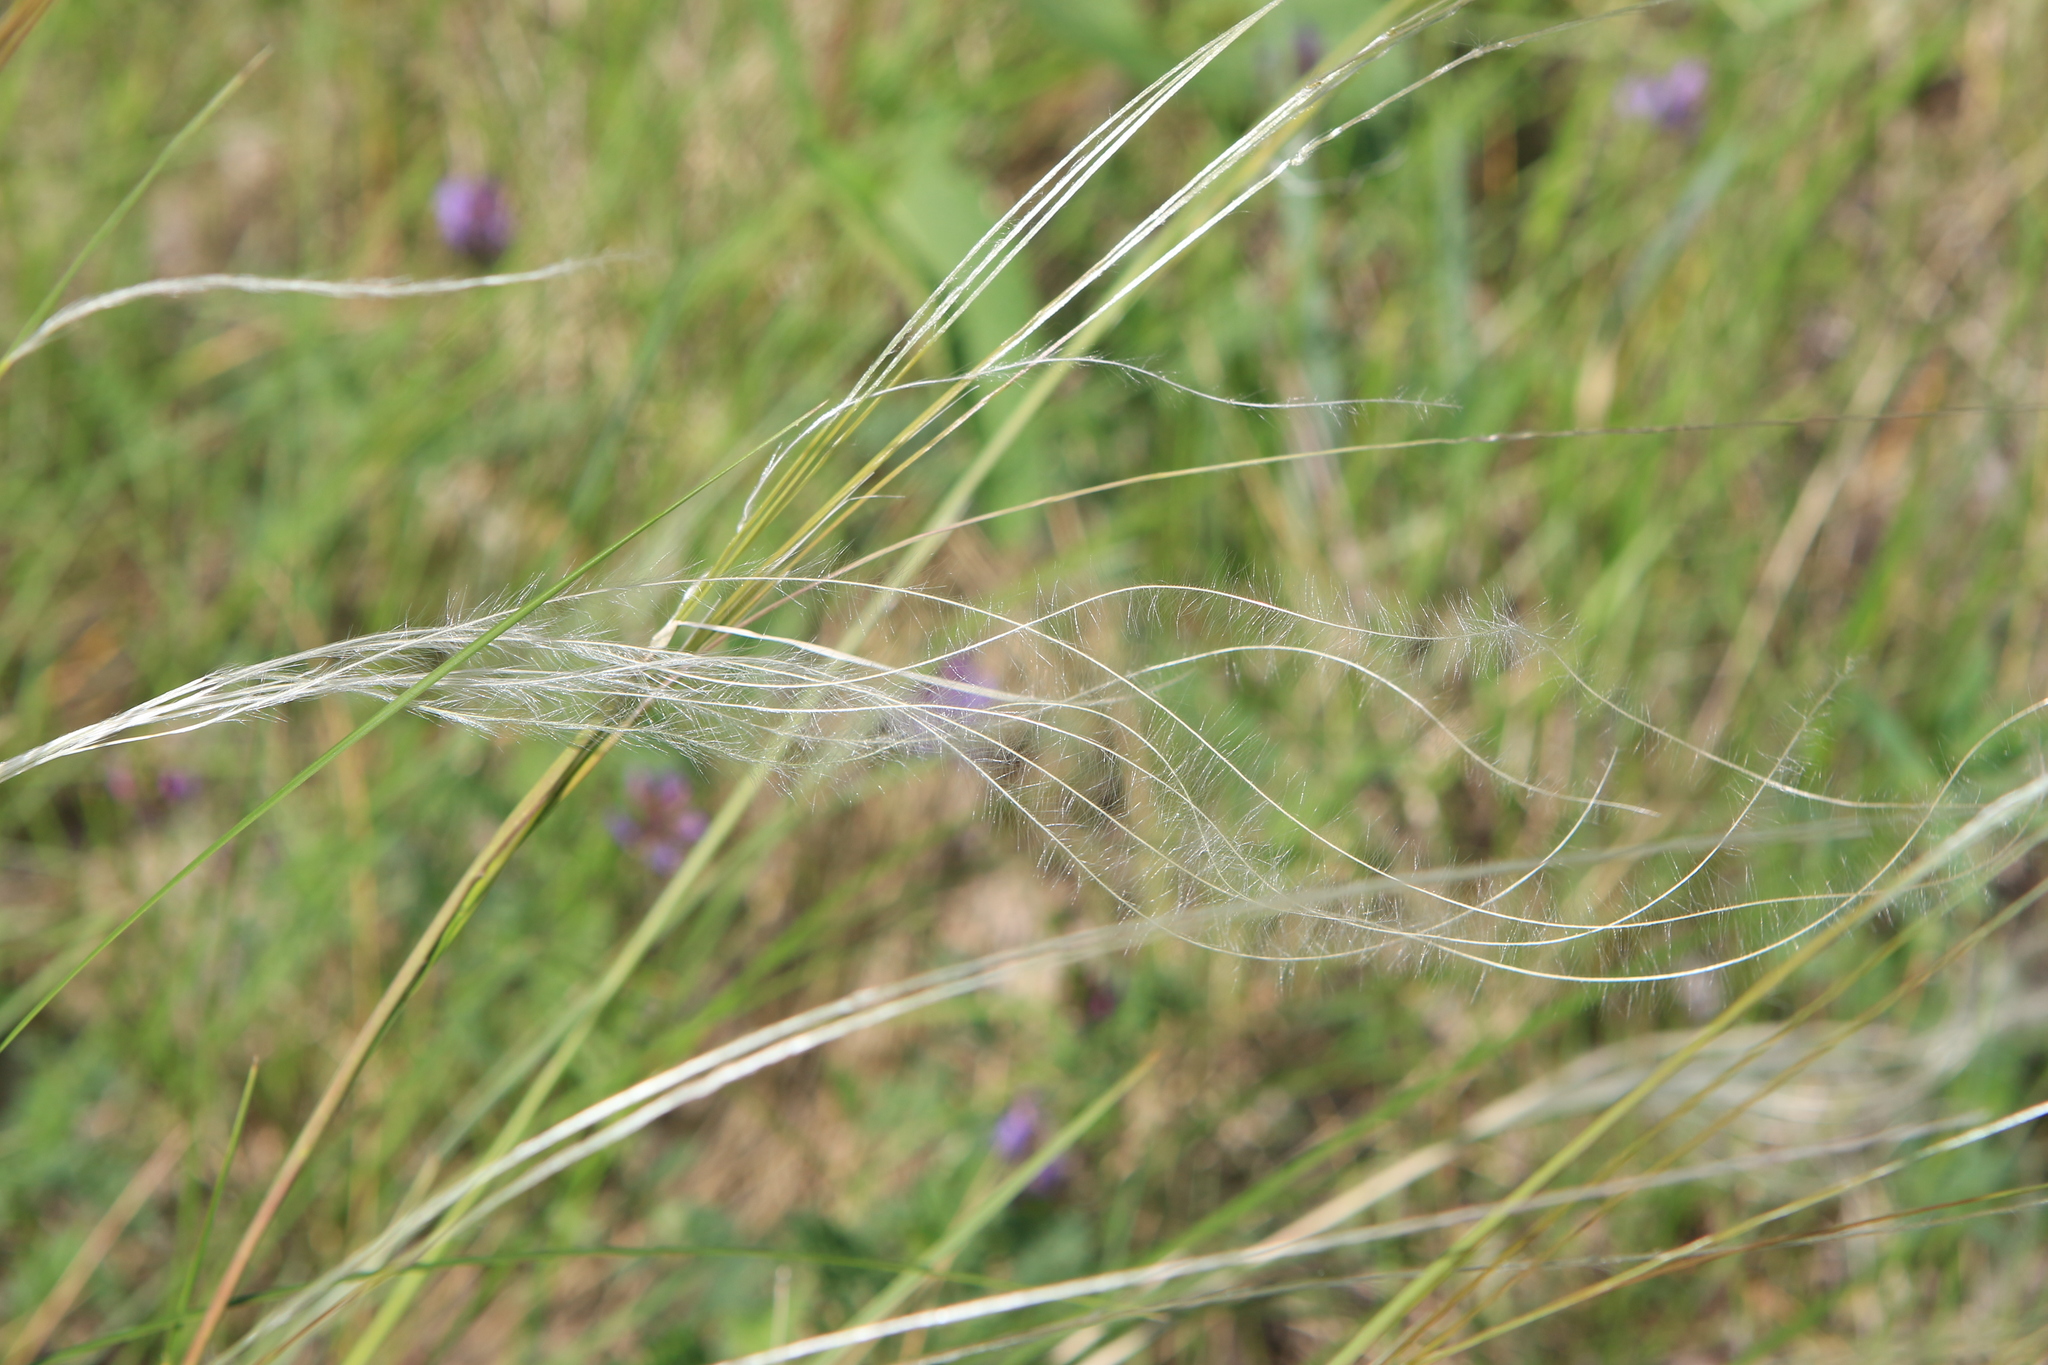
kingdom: Plantae
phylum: Tracheophyta
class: Liliopsida
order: Poales
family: Poaceae
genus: Stipa
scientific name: Stipa pennata
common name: European feather grass
